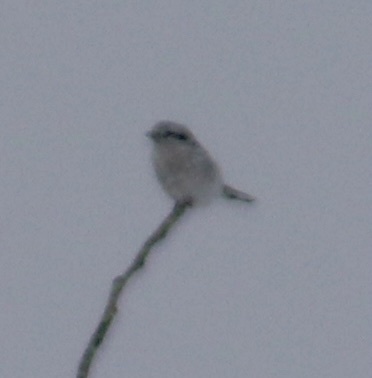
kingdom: Animalia
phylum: Chordata
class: Aves
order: Passeriformes
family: Laniidae
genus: Lanius
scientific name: Lanius borealis
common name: Northern shrike
